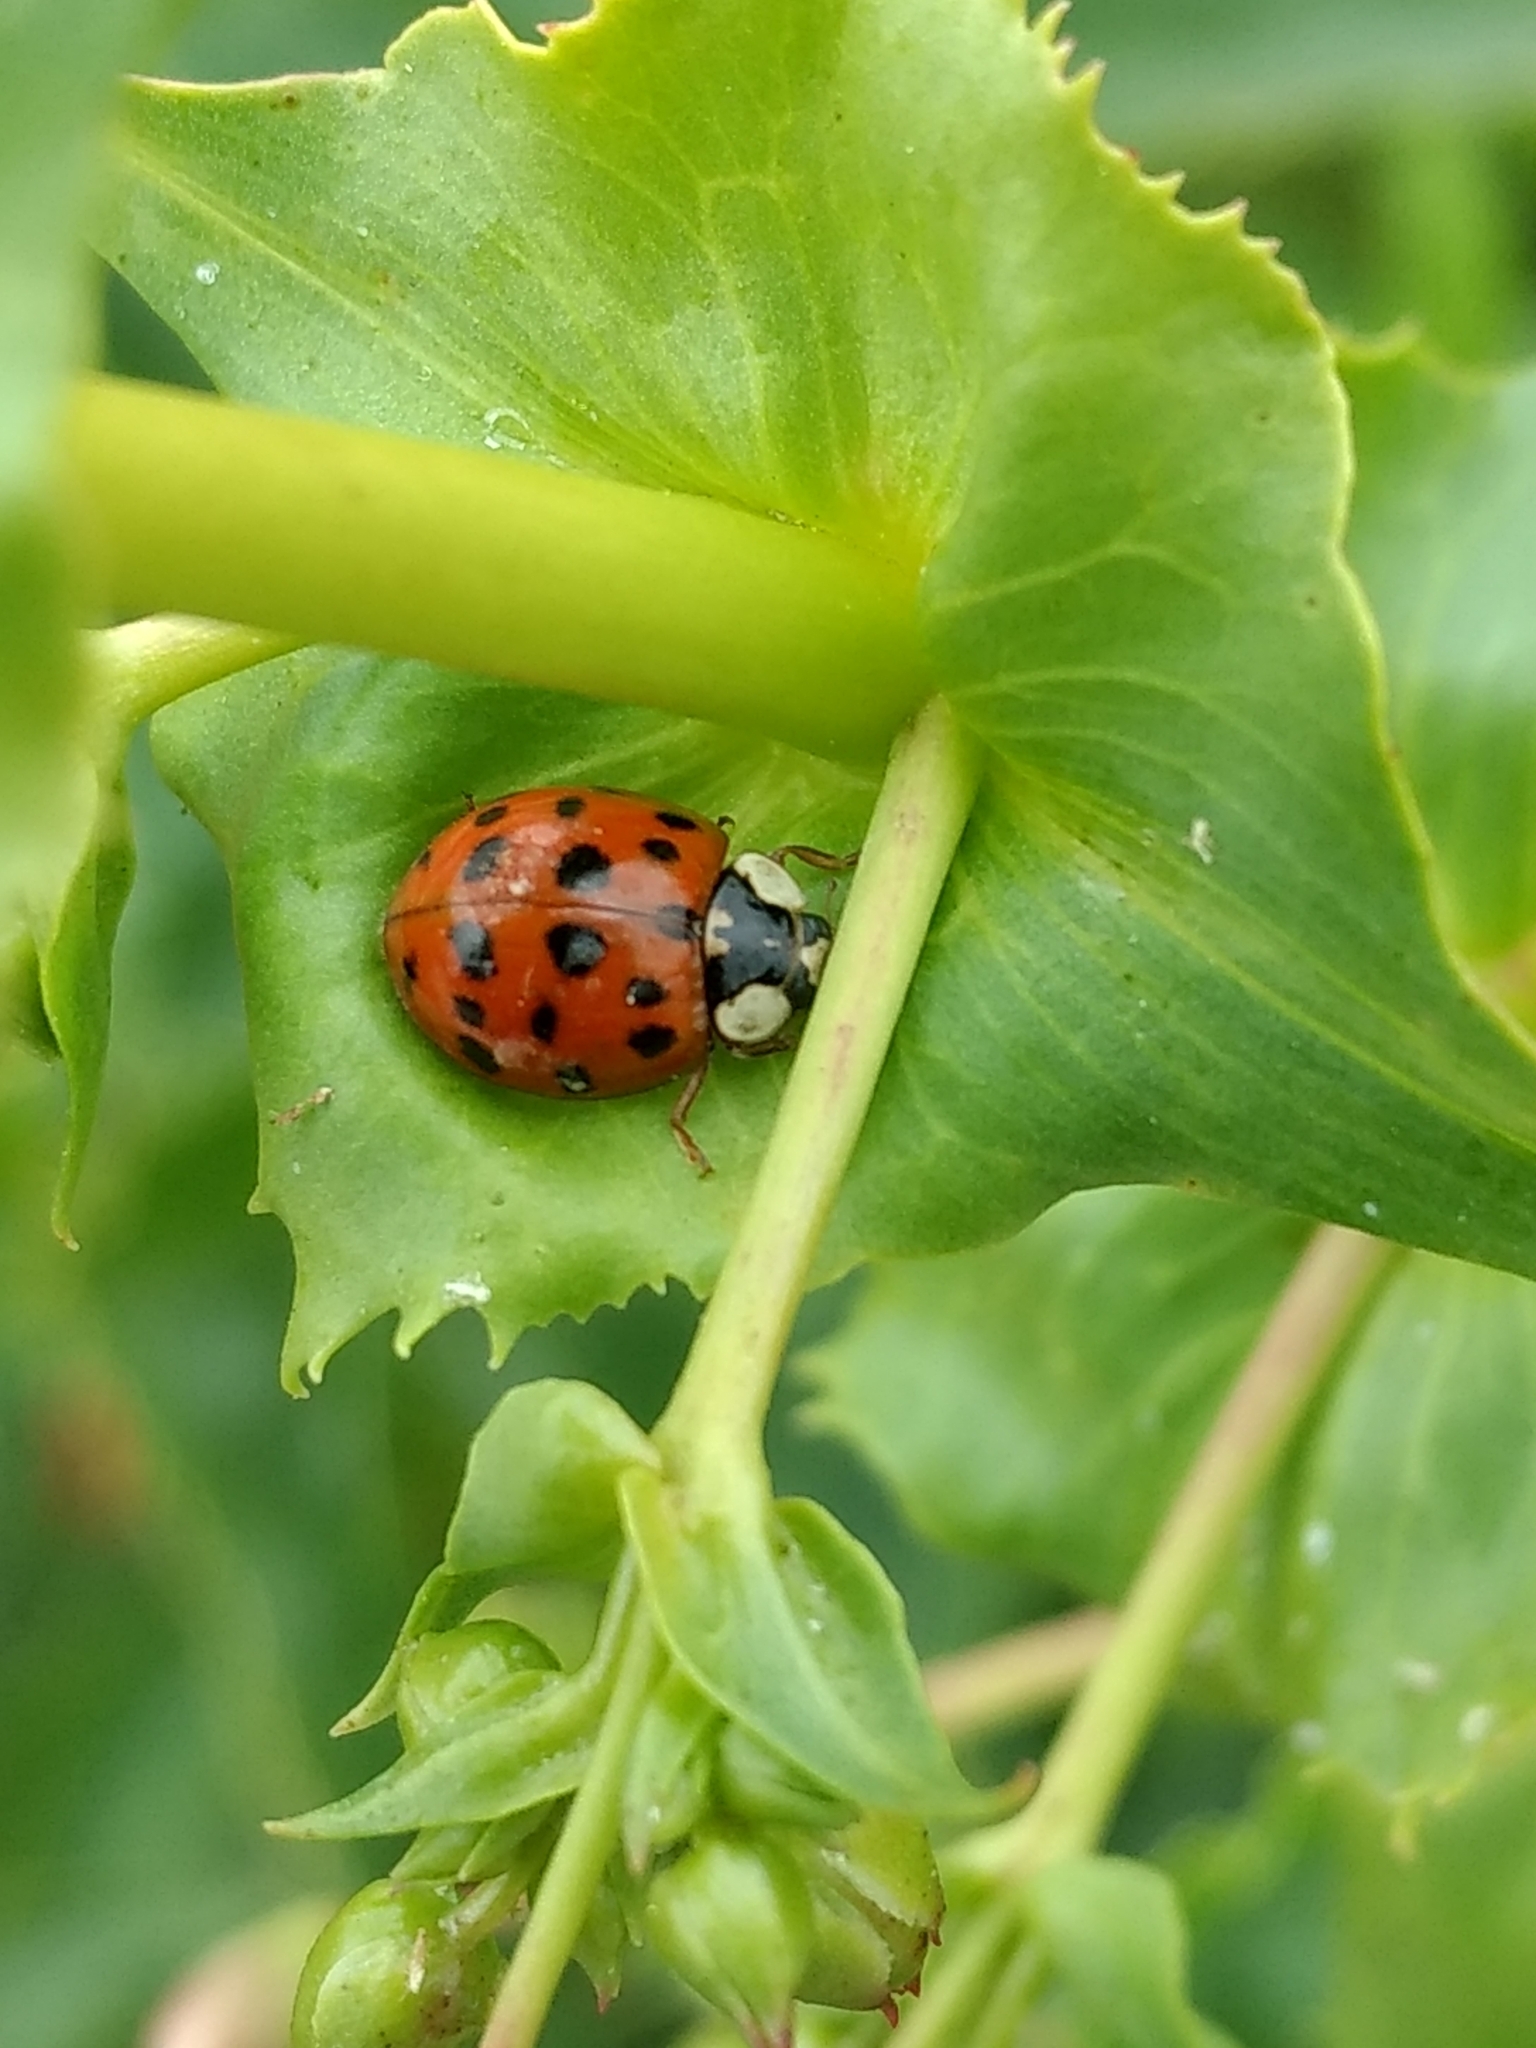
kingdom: Animalia
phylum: Arthropoda
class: Insecta
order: Coleoptera
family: Coccinellidae
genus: Harmonia
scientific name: Harmonia axyridis
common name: Harlequin ladybird
